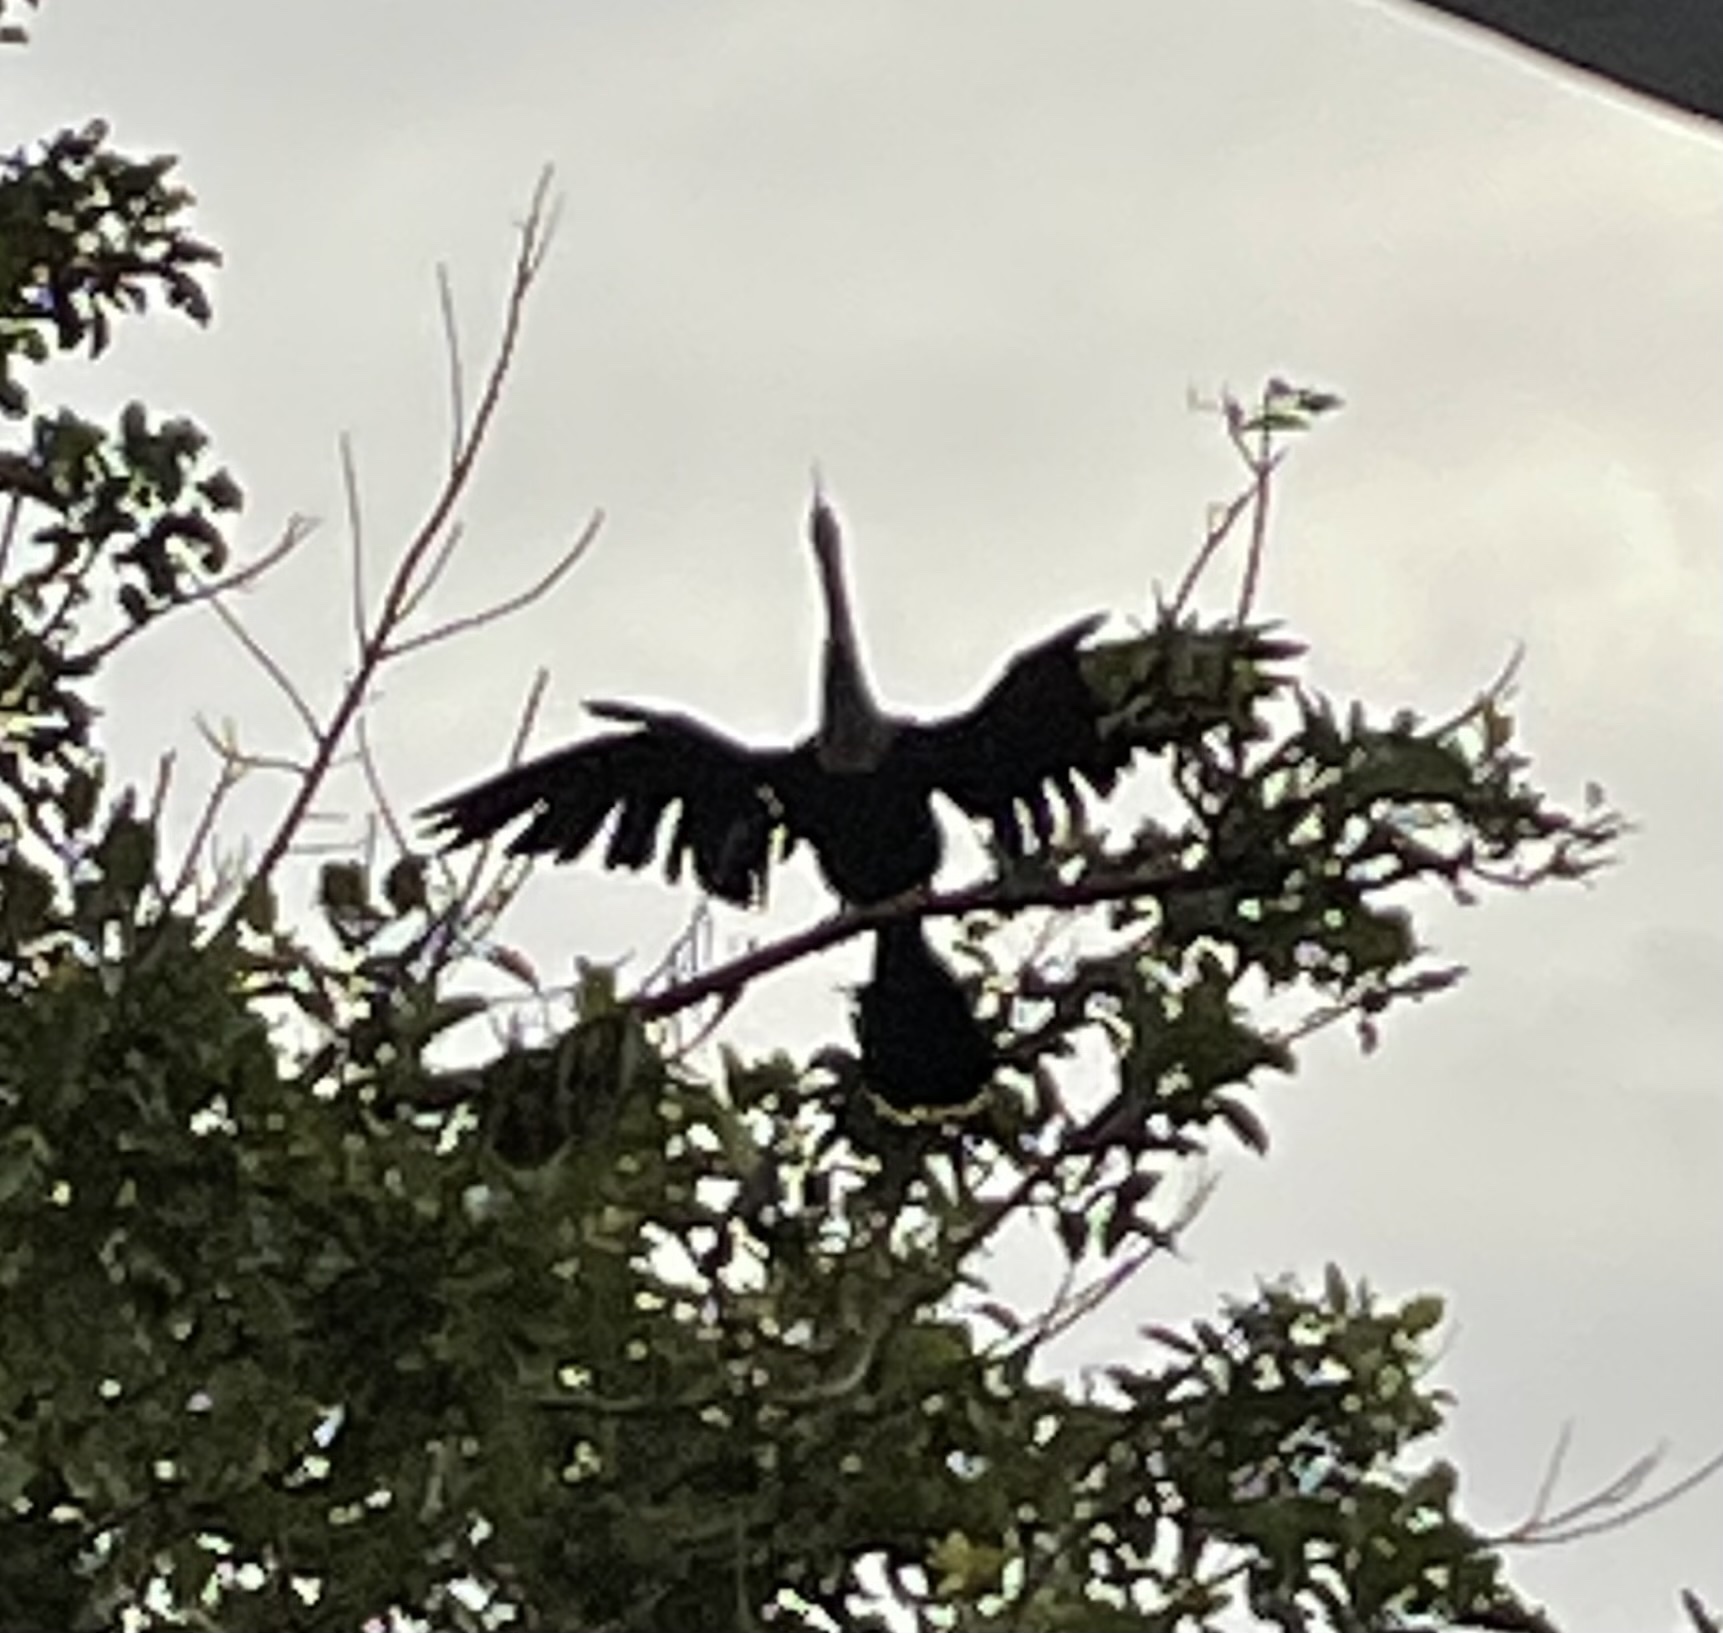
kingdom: Animalia
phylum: Chordata
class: Aves
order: Suliformes
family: Anhingidae
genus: Anhinga
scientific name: Anhinga anhinga
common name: Anhinga
